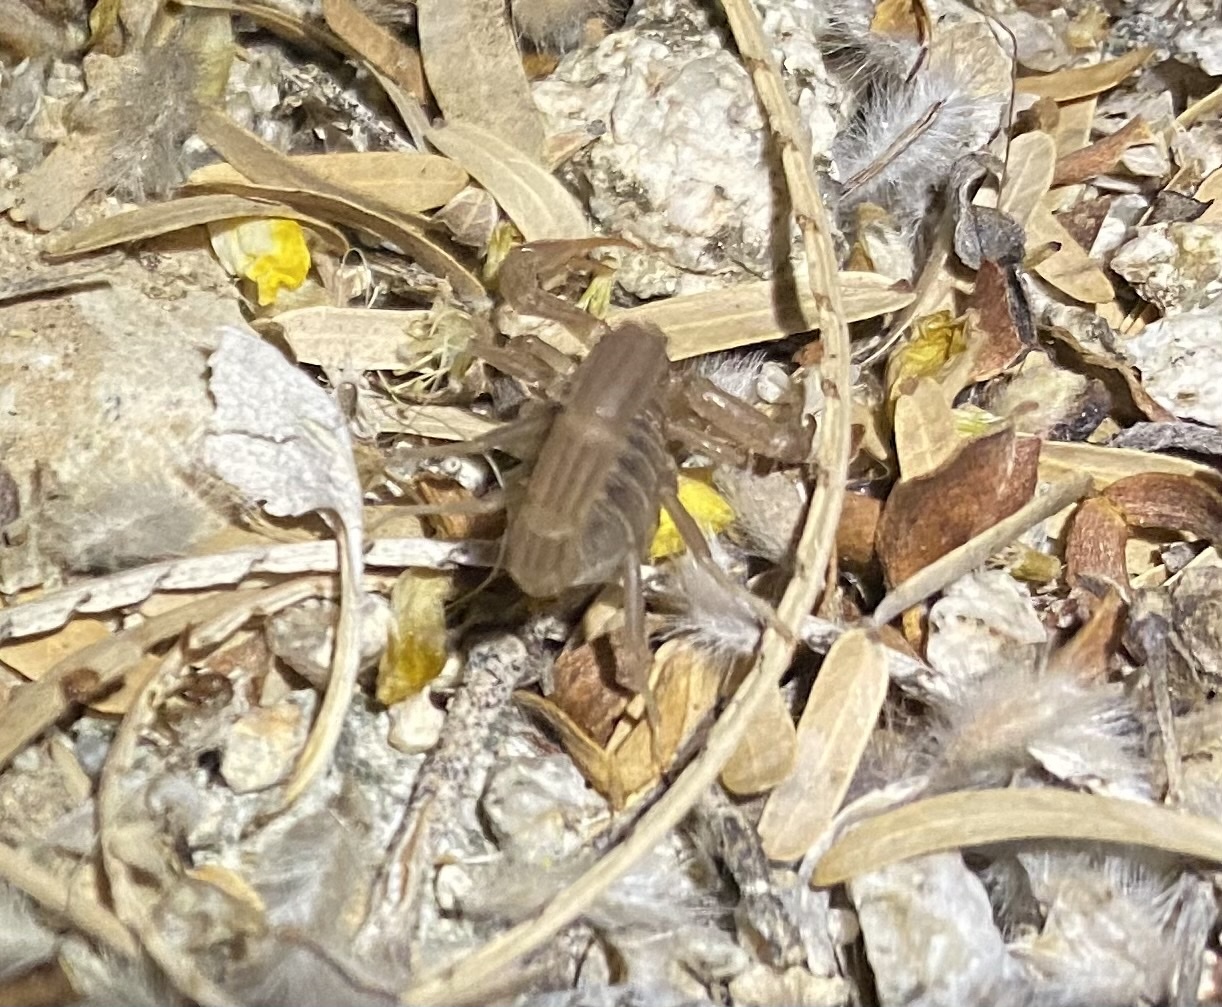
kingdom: Animalia
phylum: Arthropoda
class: Arachnida
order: Scorpiones
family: Vaejovidae
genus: Paravaejovis
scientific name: Paravaejovis spinigerus
